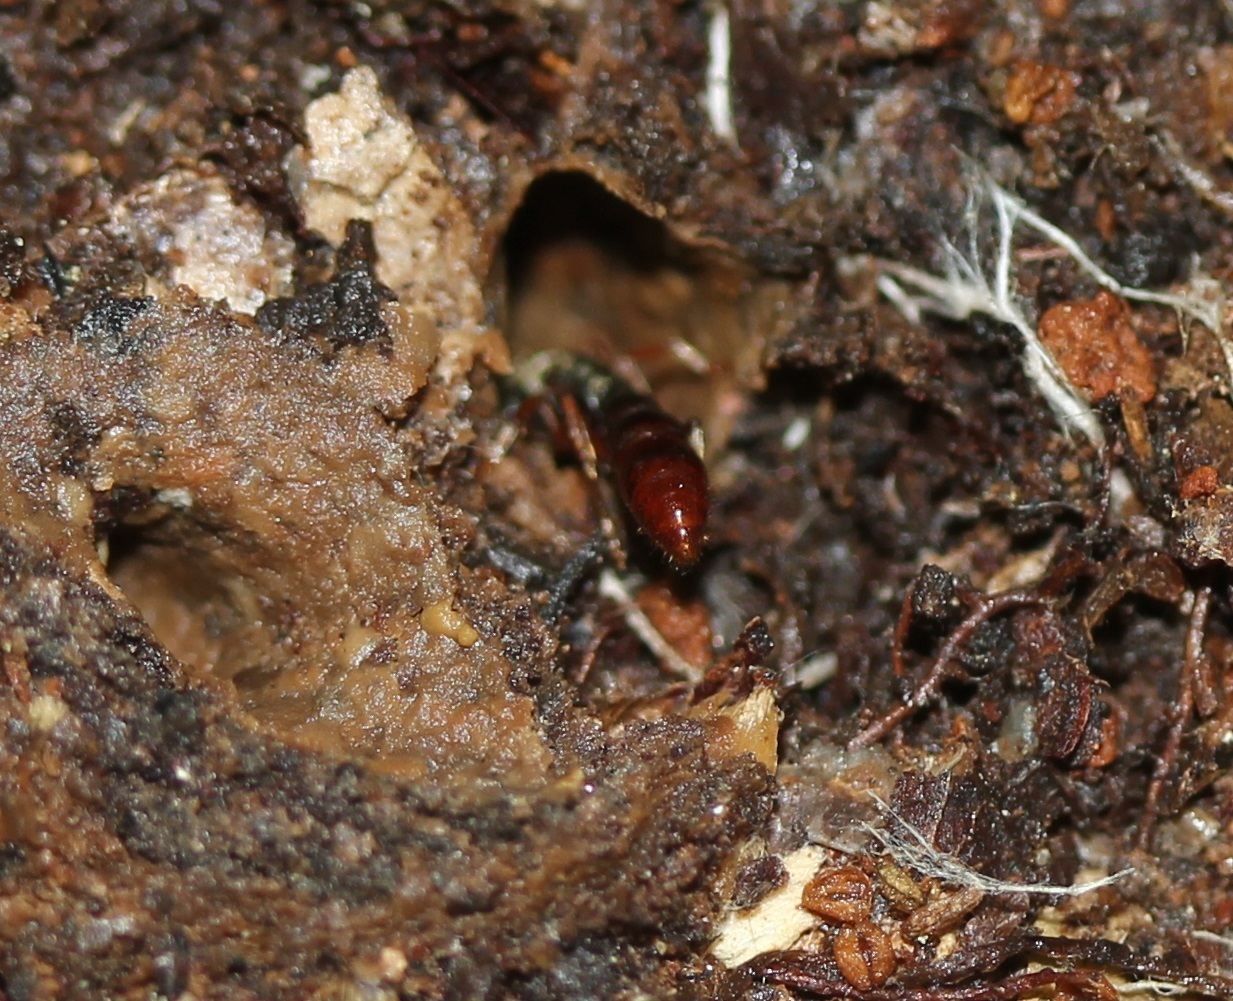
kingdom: Animalia
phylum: Arthropoda
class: Insecta
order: Hymenoptera
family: Formicidae
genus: Stigmatomma
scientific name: Stigmatomma pallipes
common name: Vampire ant
